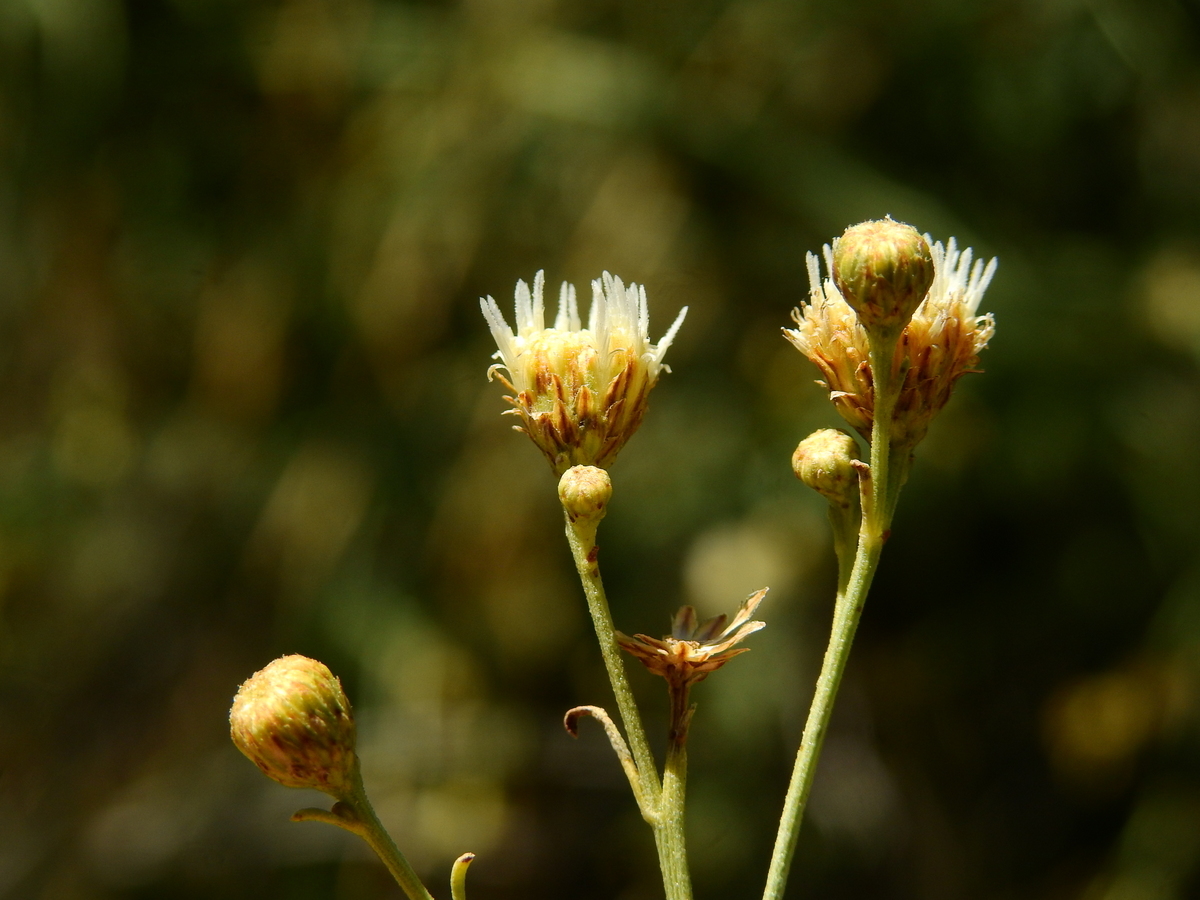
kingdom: Plantae
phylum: Tracheophyta
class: Magnoliopsida
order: Asterales
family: Asteraceae
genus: Pseudobaccharis
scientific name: Pseudobaccharis retamoides
